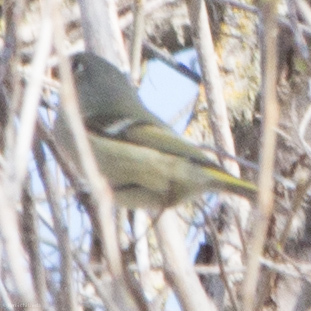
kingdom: Animalia
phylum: Chordata
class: Aves
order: Passeriformes
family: Regulidae
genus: Regulus
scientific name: Regulus calendula
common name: Ruby-crowned kinglet
